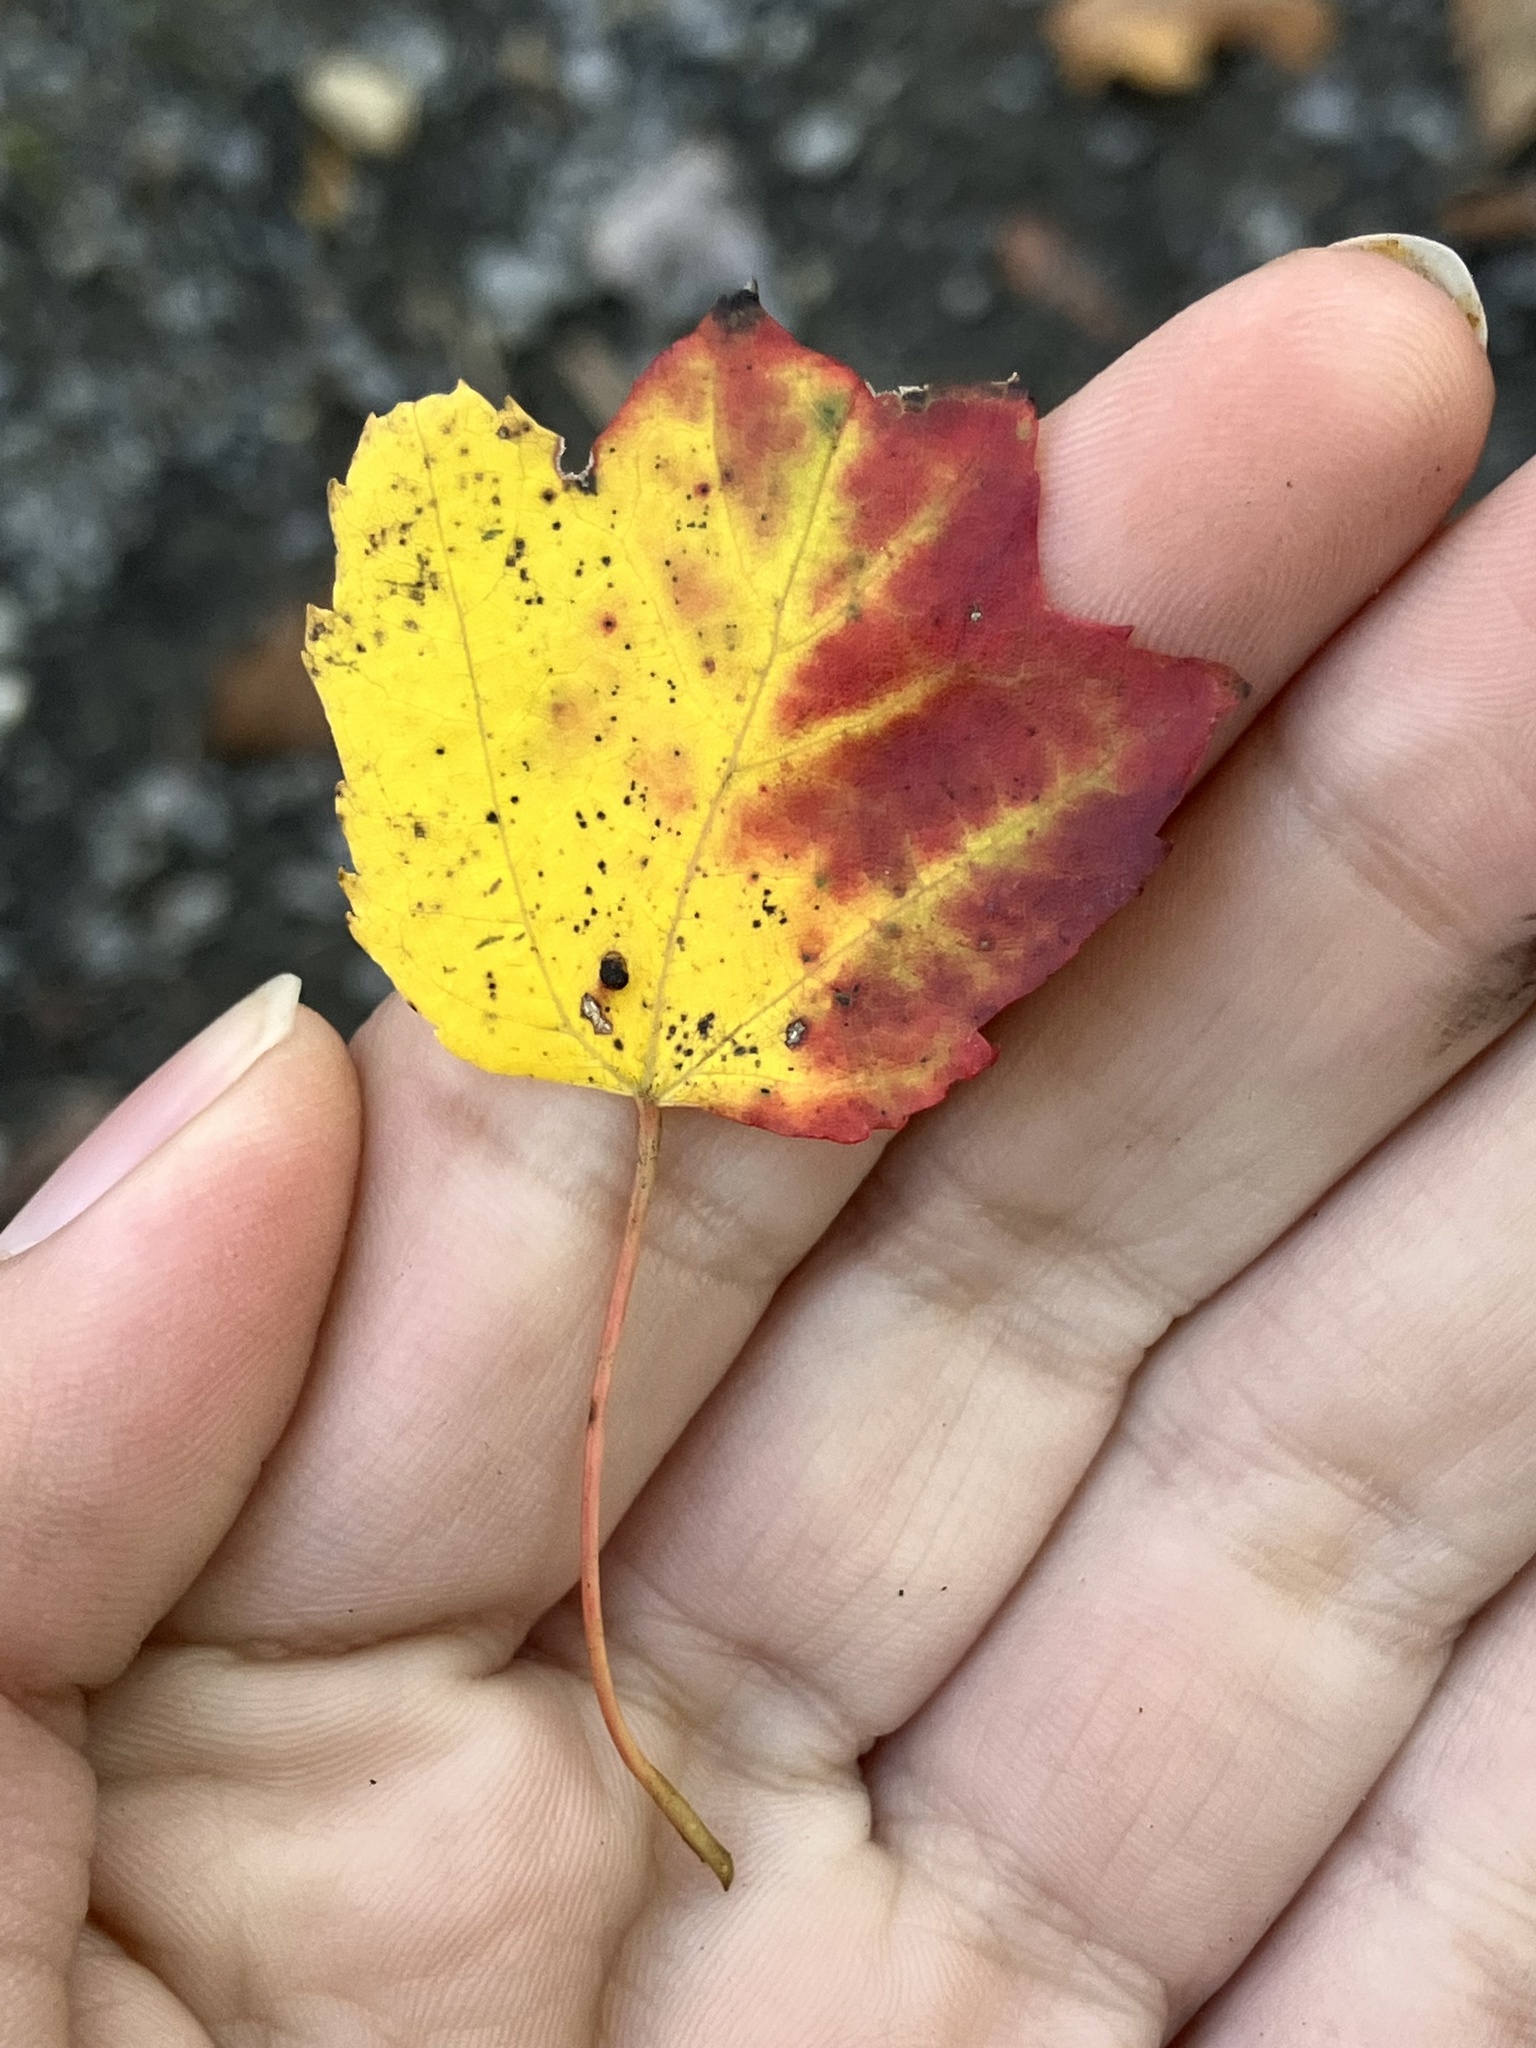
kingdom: Plantae
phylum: Tracheophyta
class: Magnoliopsida
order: Sapindales
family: Sapindaceae
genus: Acer
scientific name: Acer rubrum
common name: Red maple
